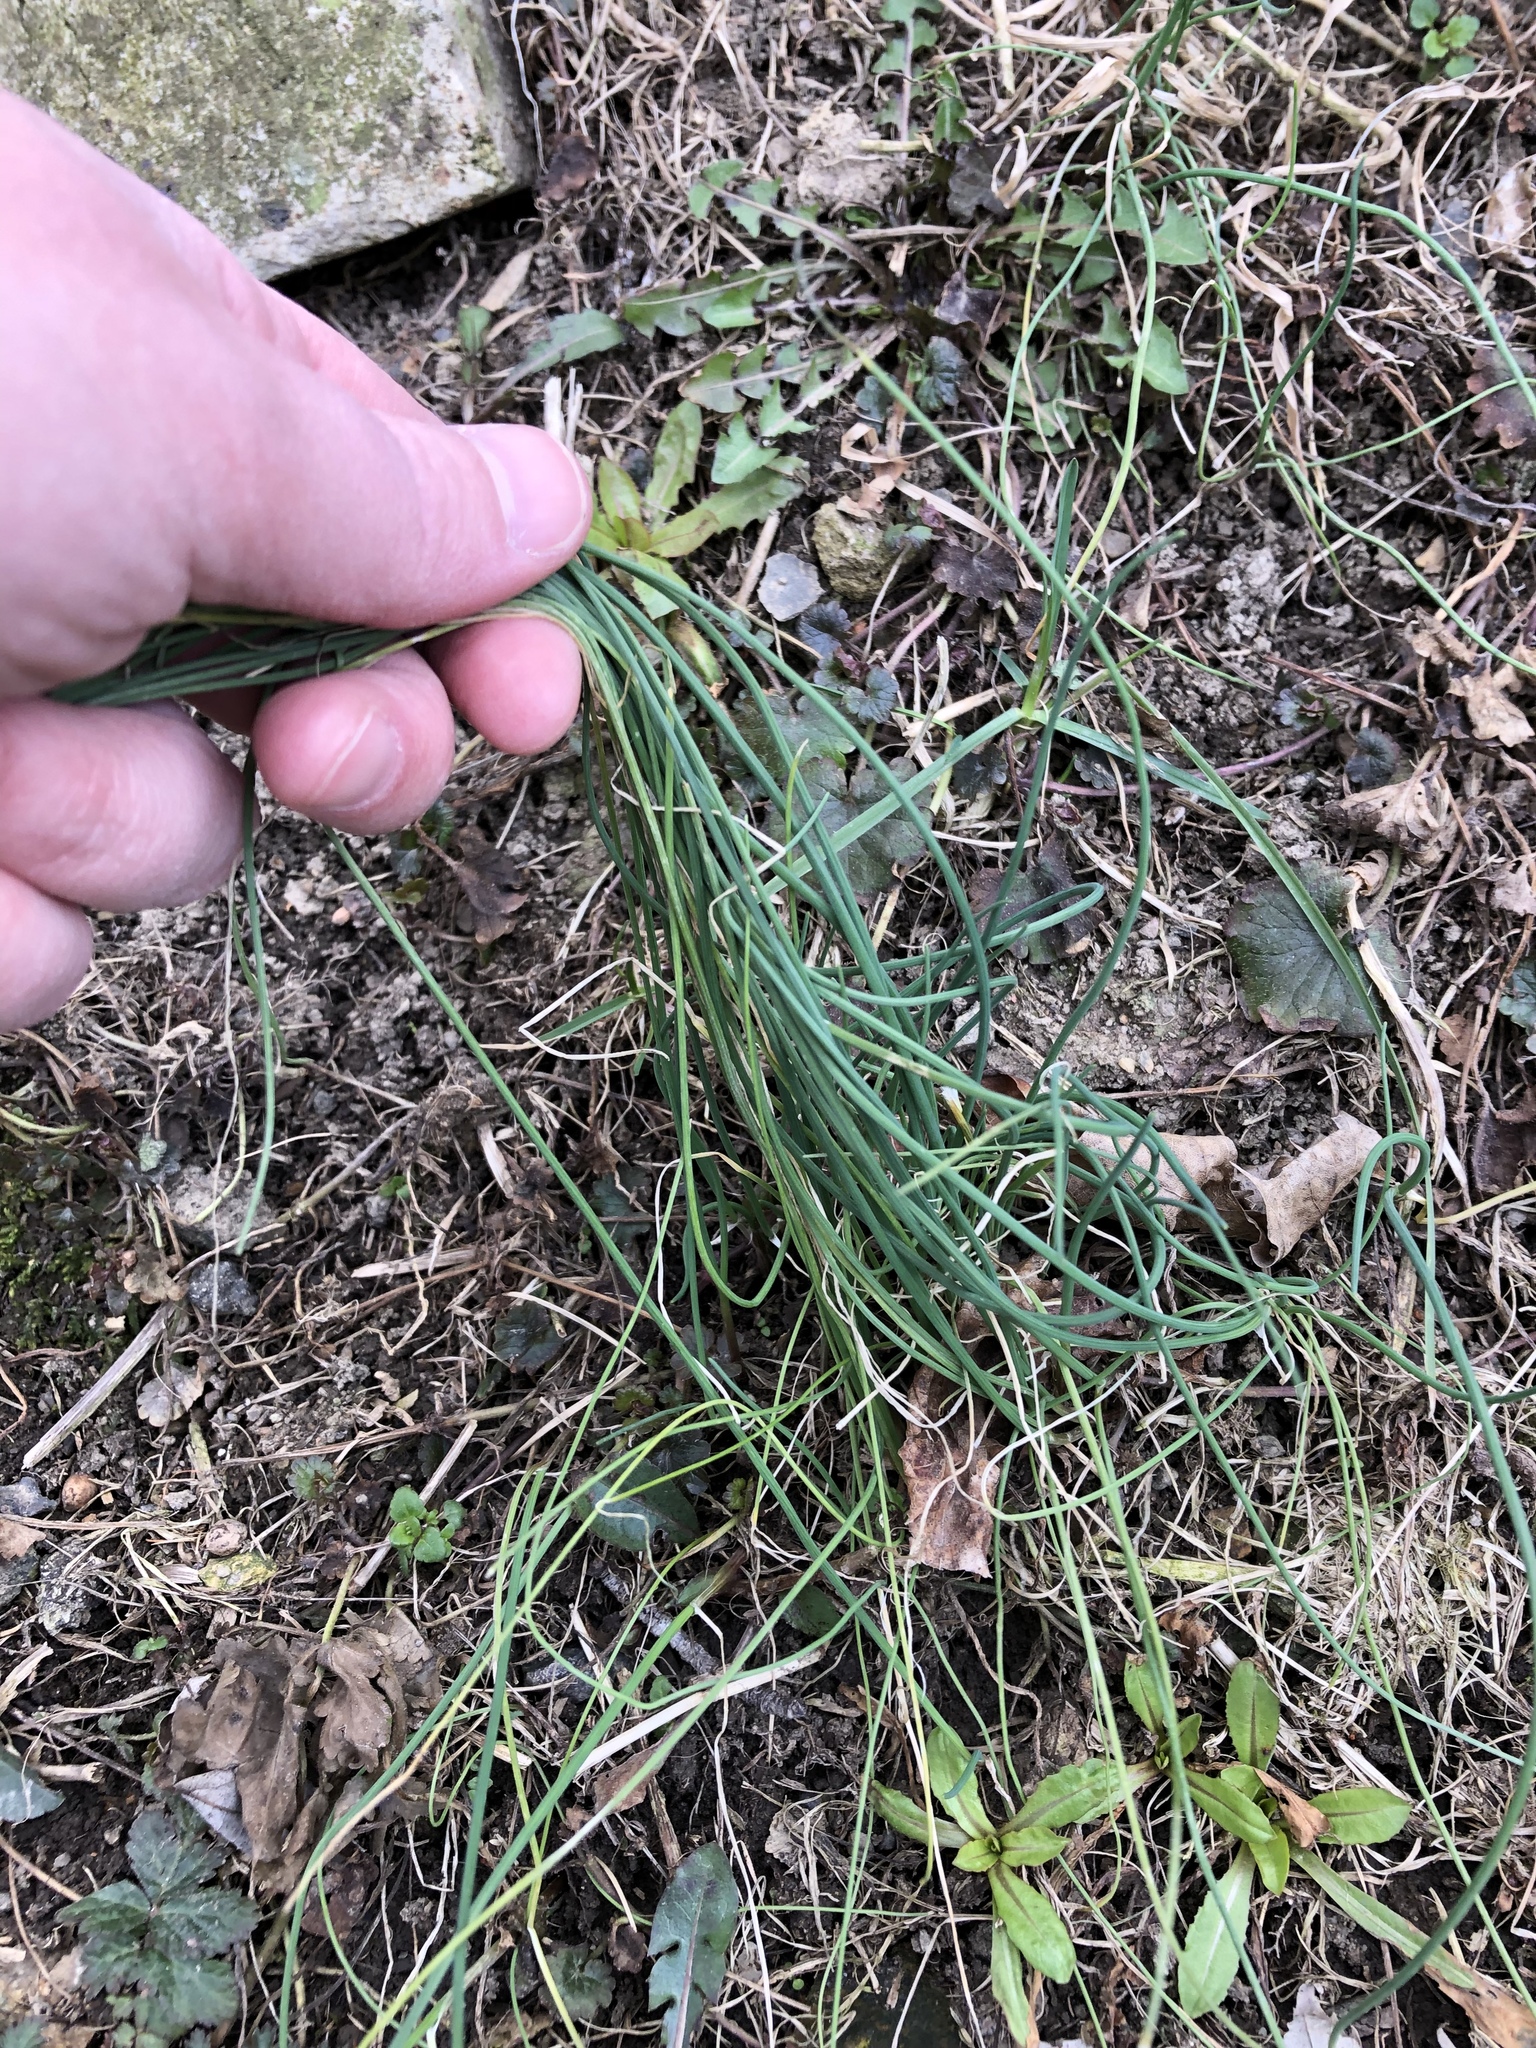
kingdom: Plantae
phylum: Tracheophyta
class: Liliopsida
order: Asparagales
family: Amaryllidaceae
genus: Allium
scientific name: Allium vineale
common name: Crow garlic
